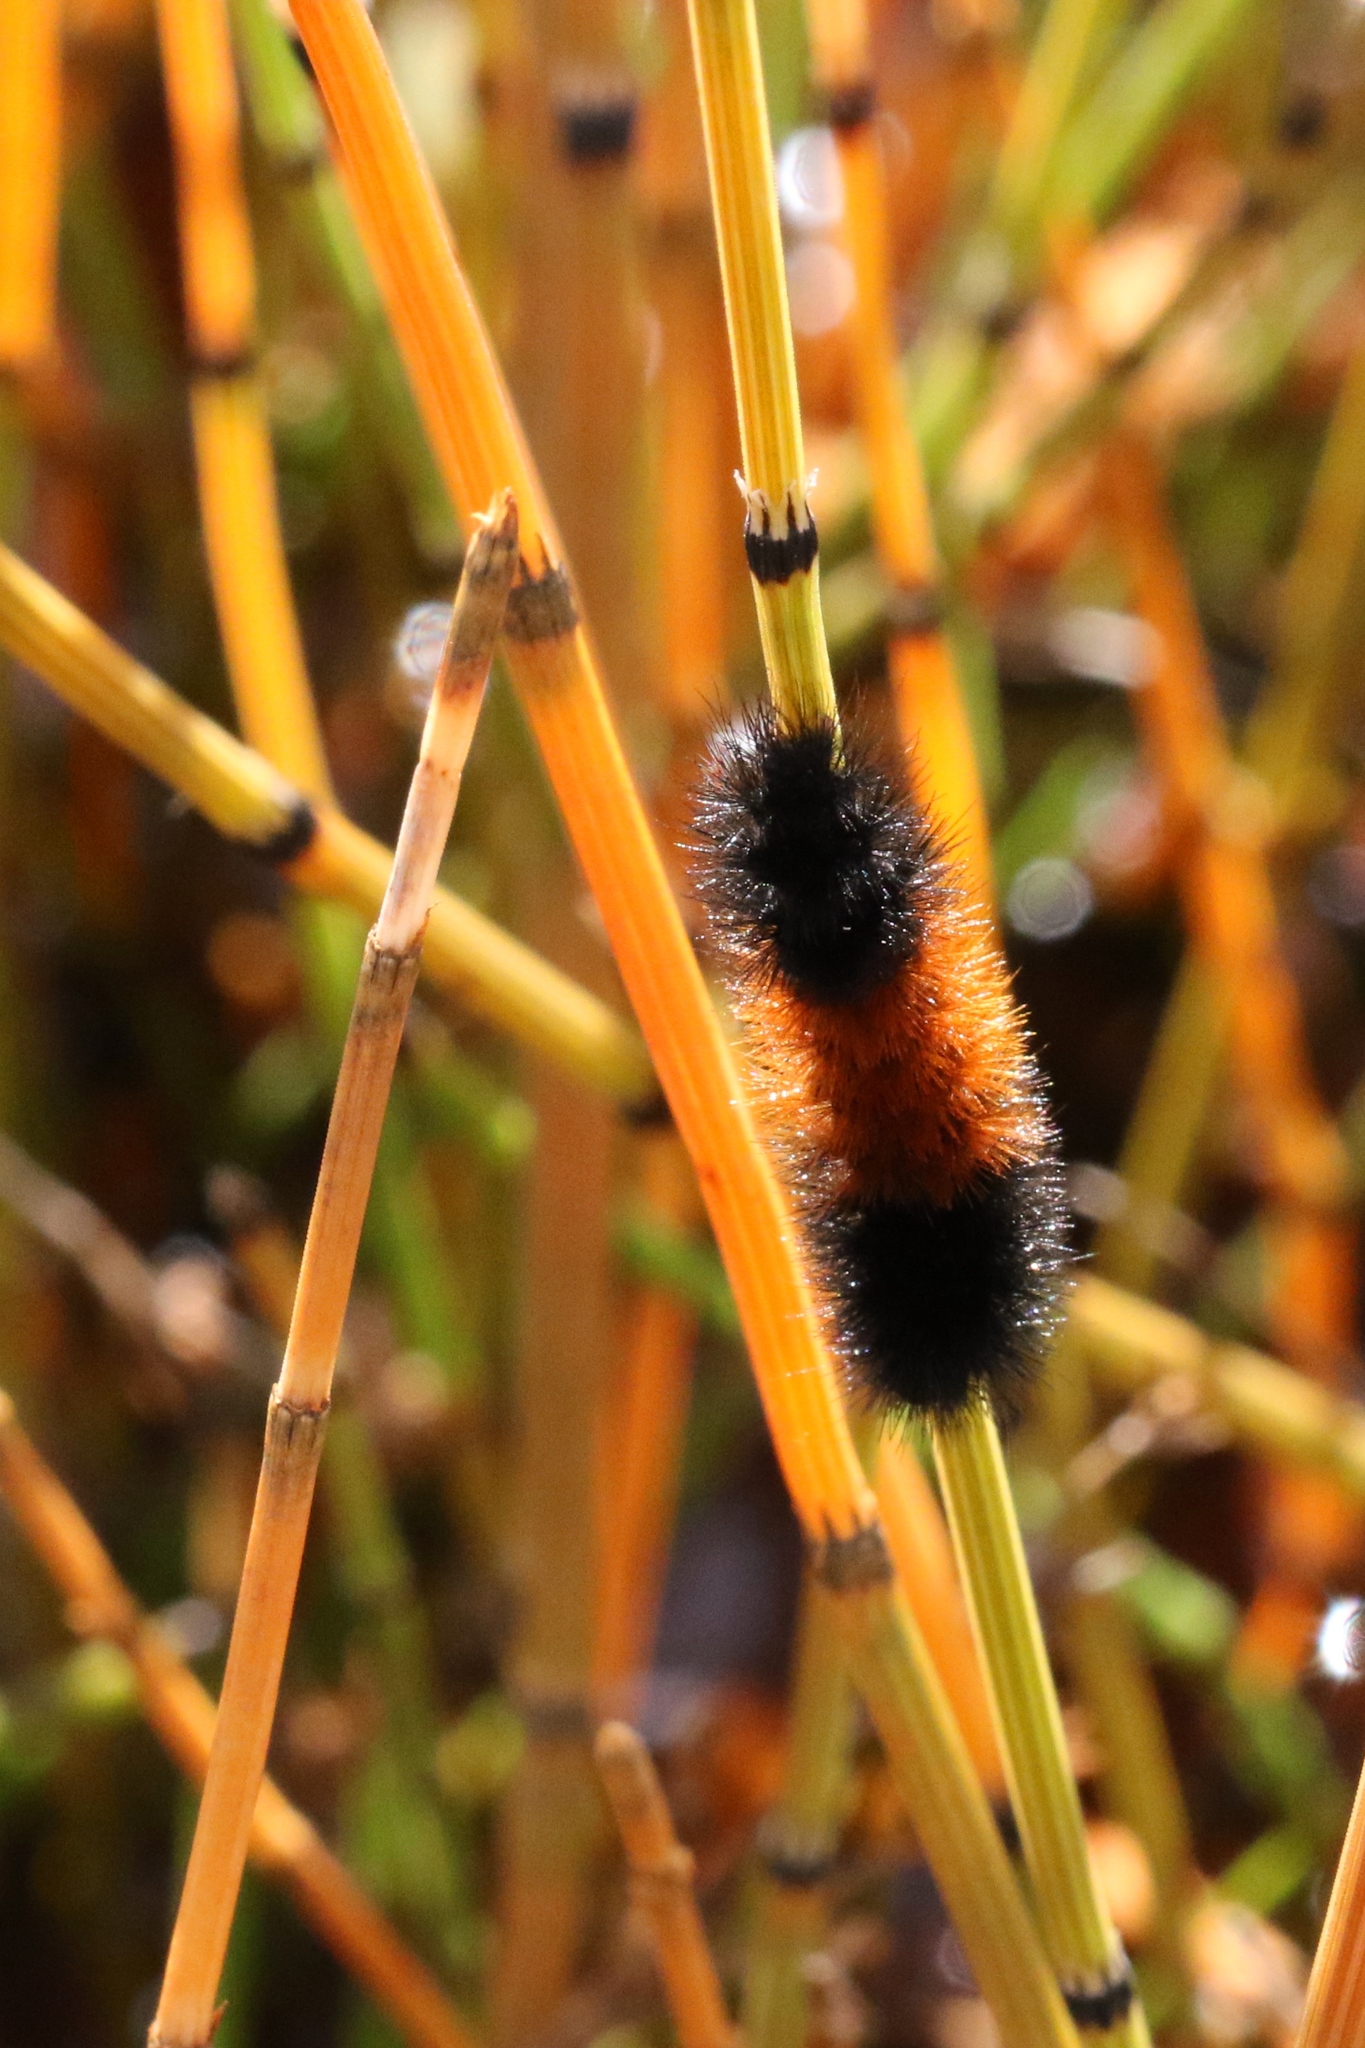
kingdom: Animalia
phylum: Arthropoda
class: Insecta
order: Lepidoptera
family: Erebidae
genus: Pyrrharctia
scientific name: Pyrrharctia isabella
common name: Isabella tiger moth
